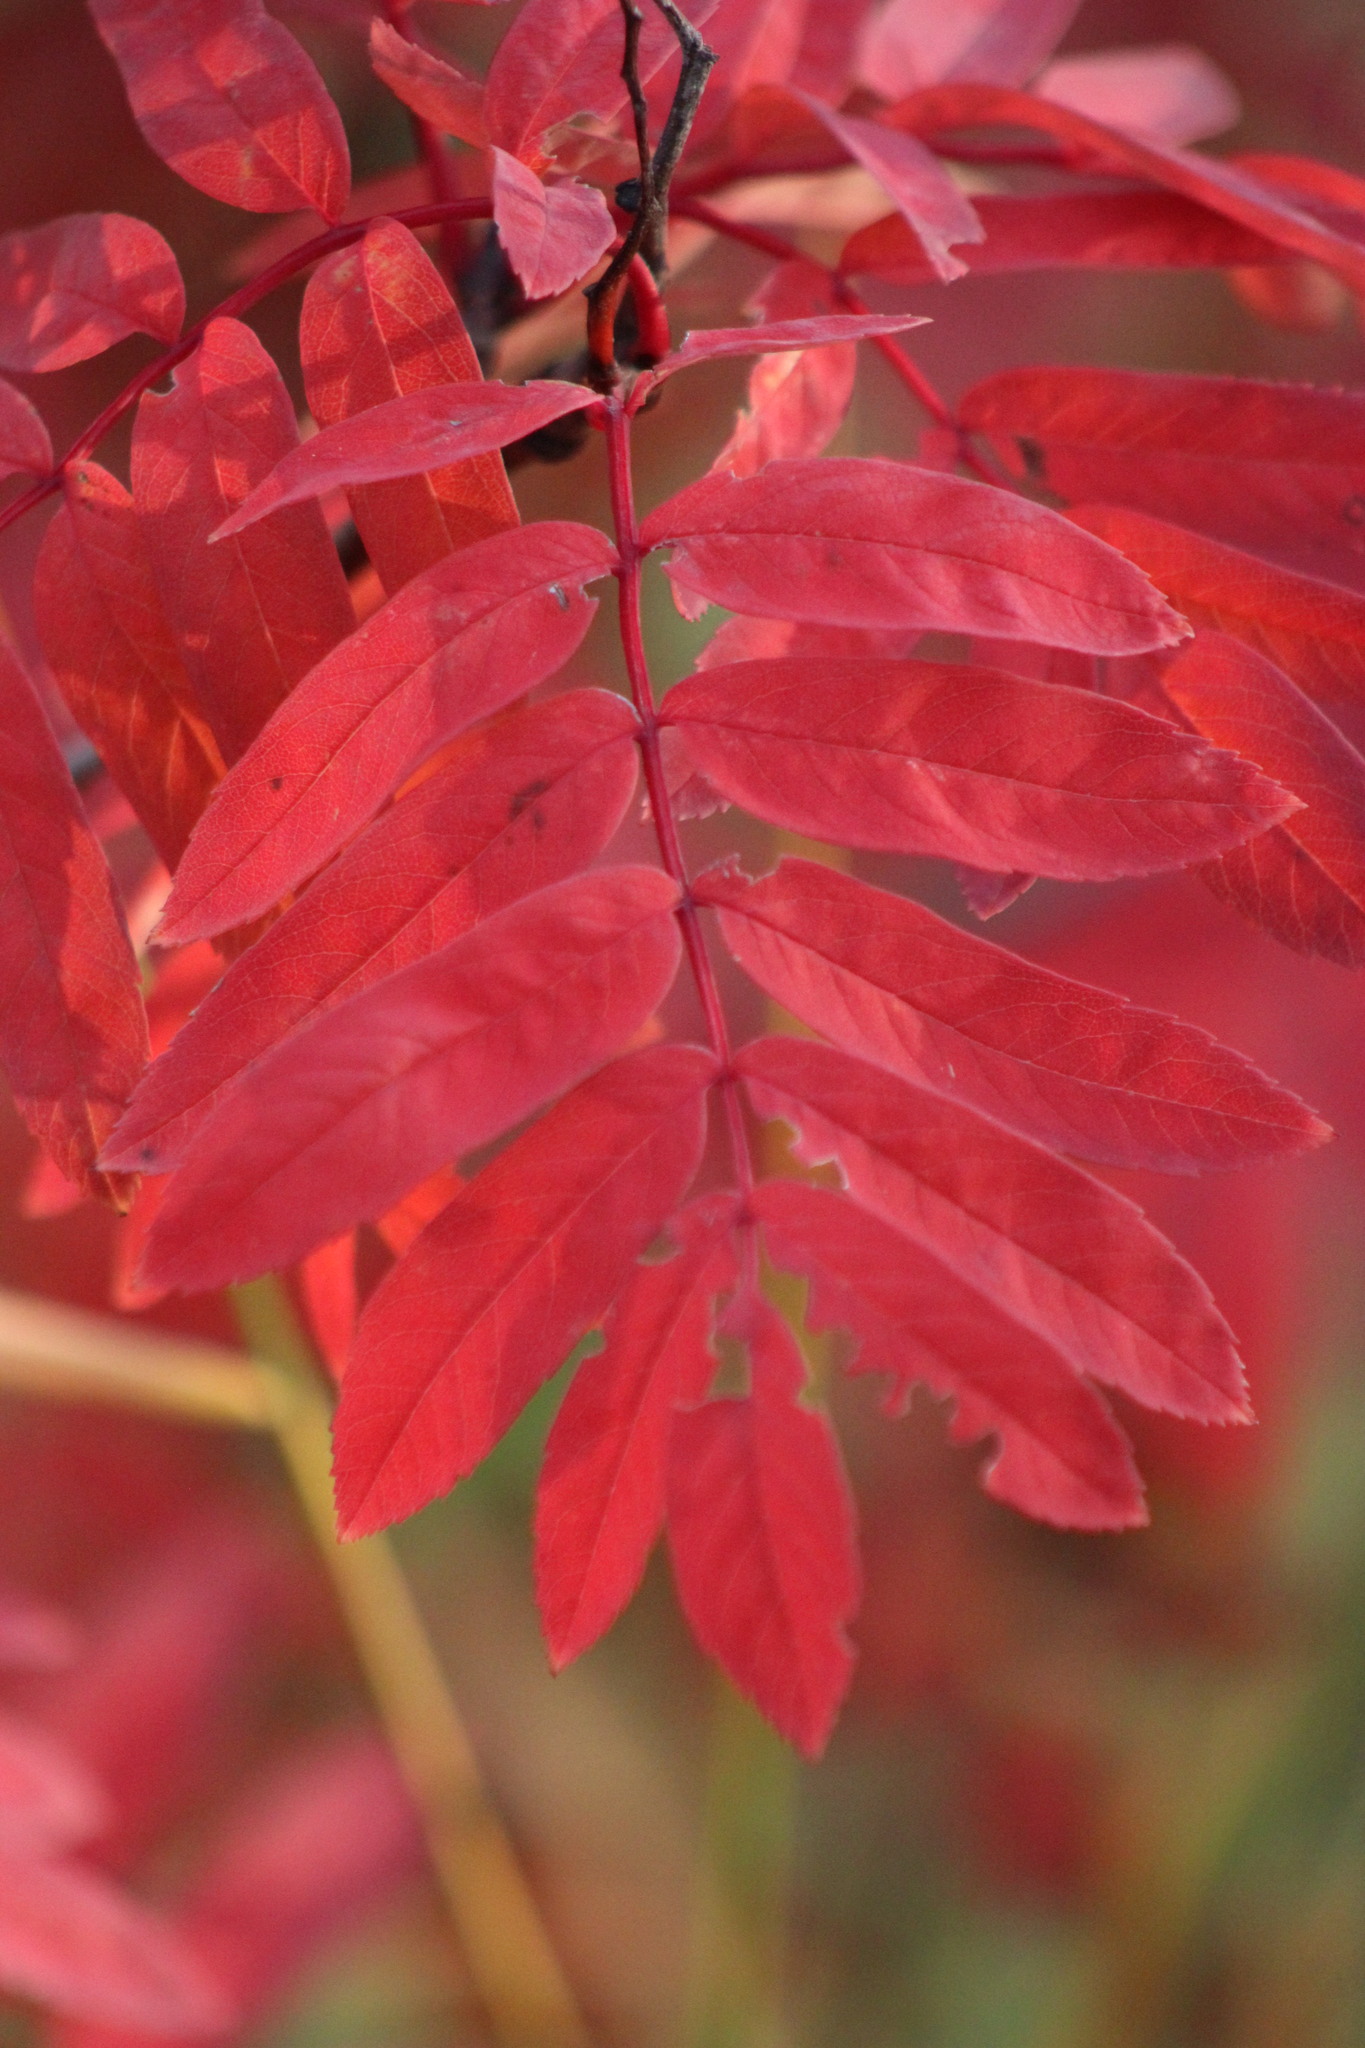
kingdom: Plantae
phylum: Tracheophyta
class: Magnoliopsida
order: Rosales
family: Rosaceae
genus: Sorbus
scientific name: Sorbus aucuparia
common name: Rowan
